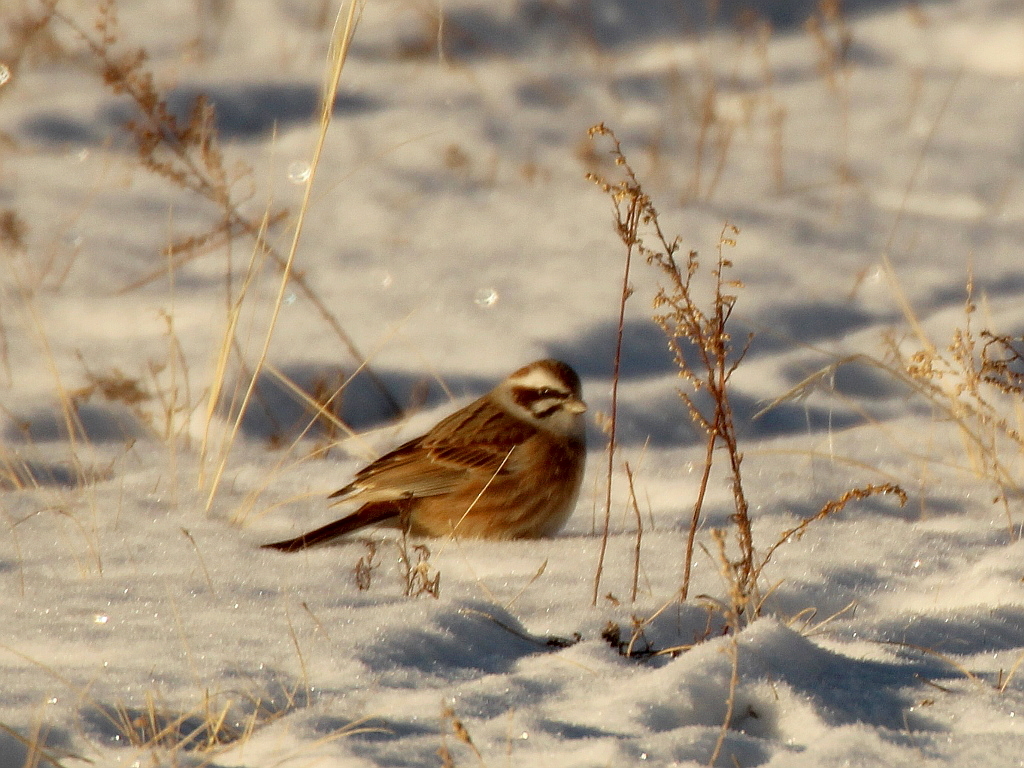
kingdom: Animalia
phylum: Chordata
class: Aves
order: Passeriformes
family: Emberizidae
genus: Emberiza
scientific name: Emberiza cioides
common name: Meadow bunting
